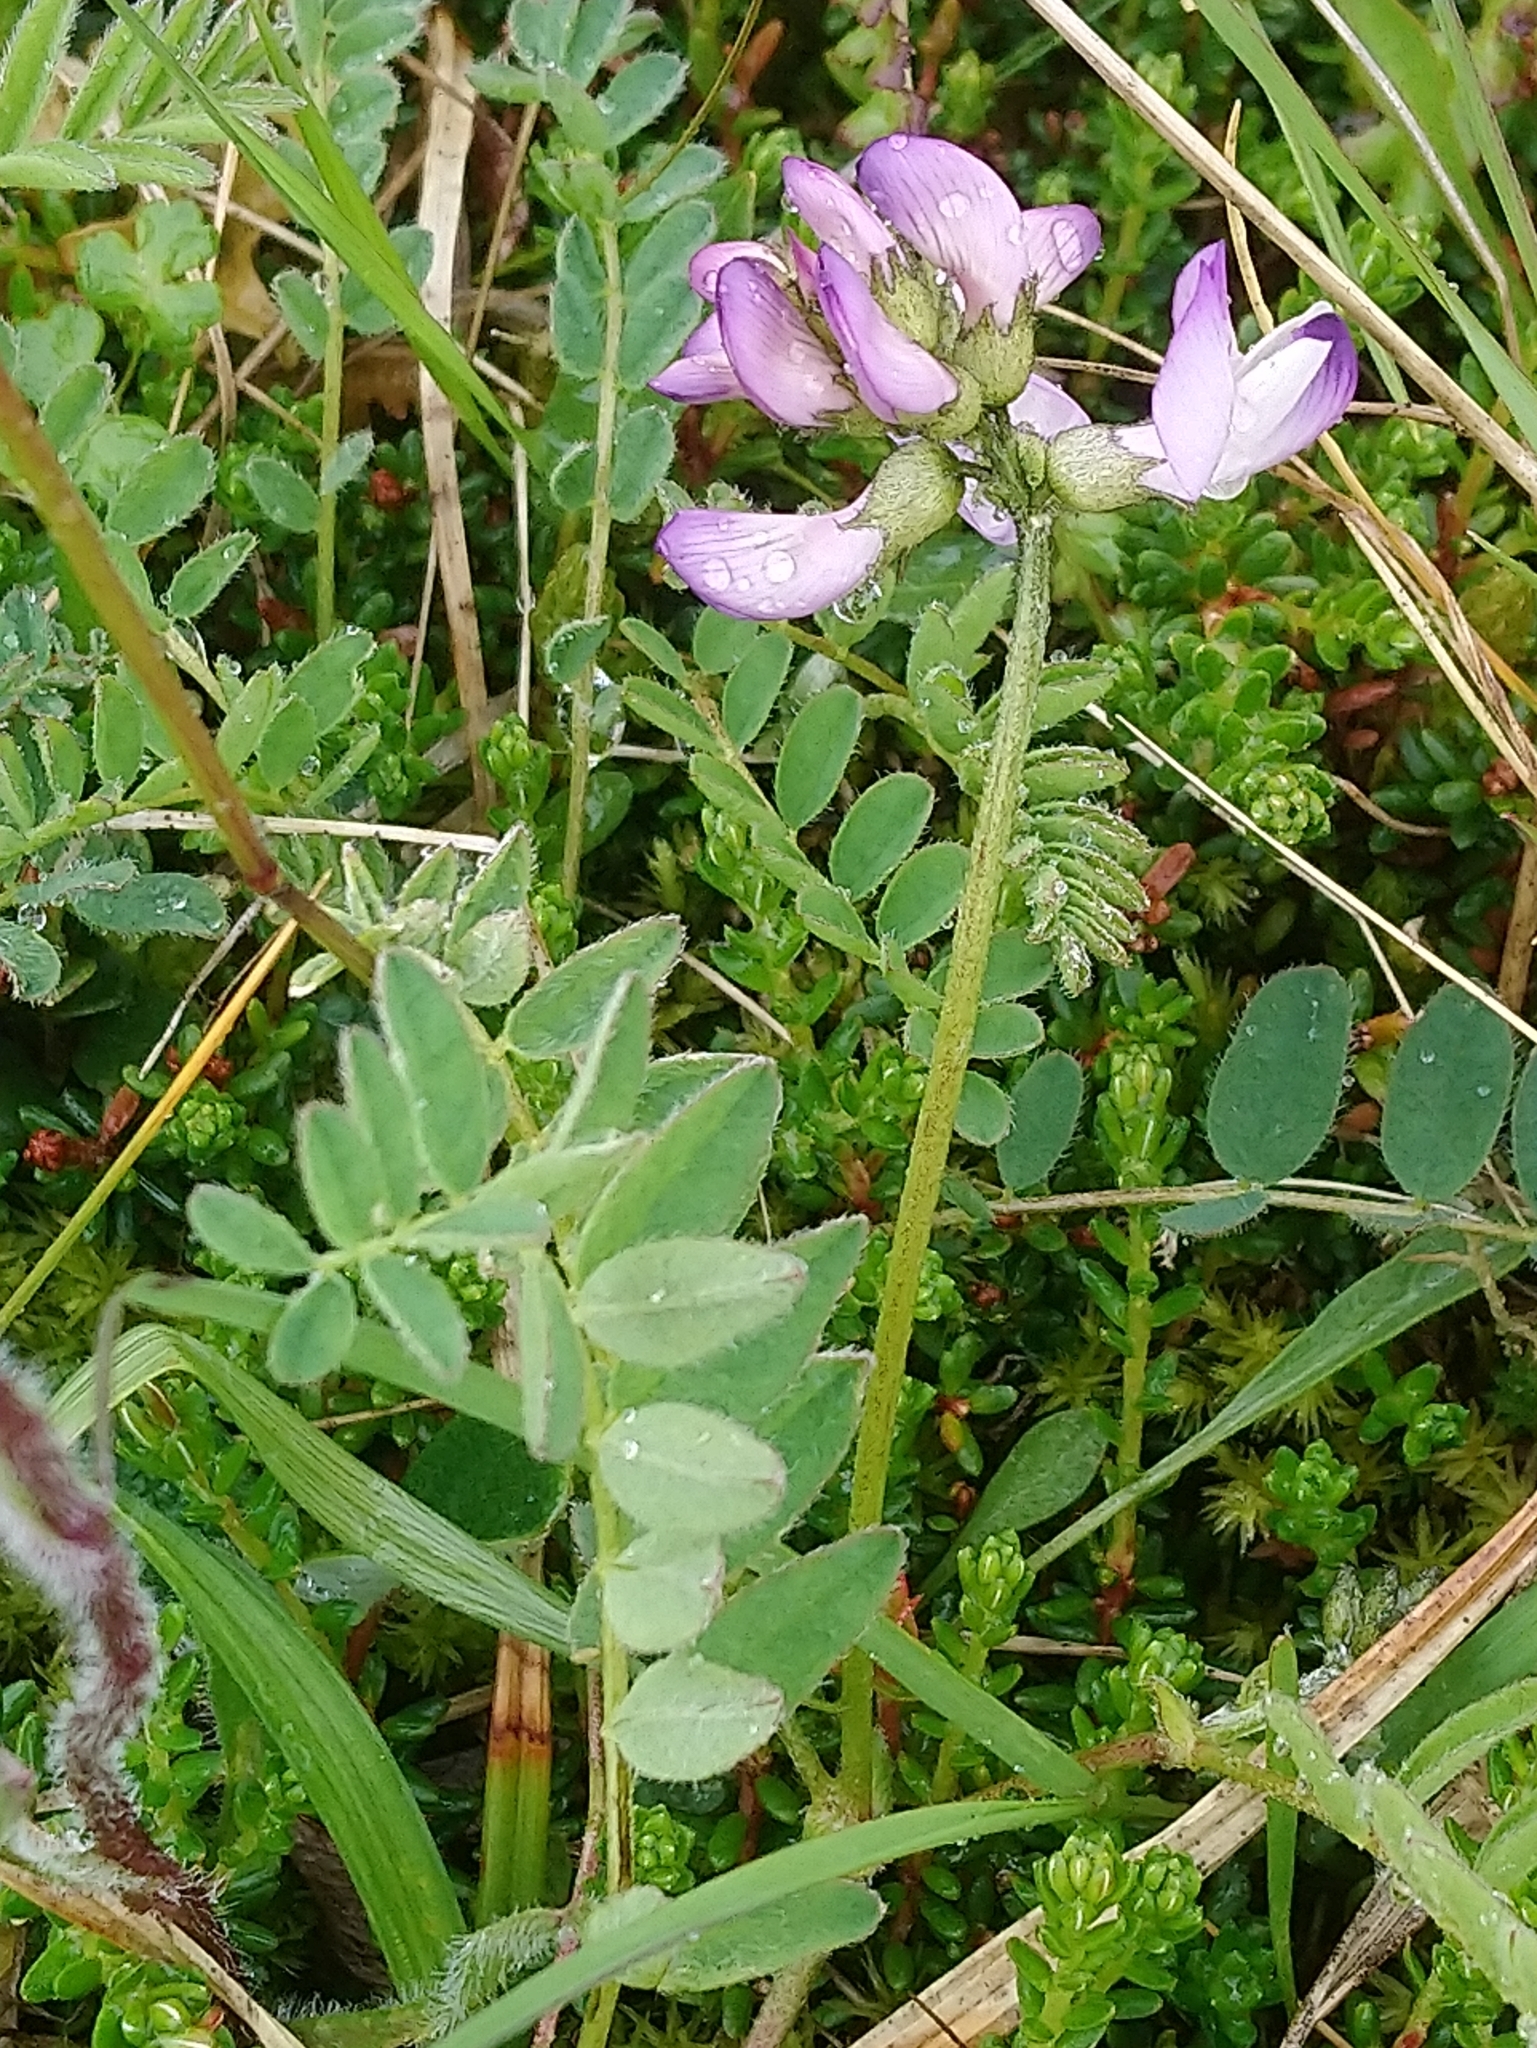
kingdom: Plantae
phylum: Tracheophyta
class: Magnoliopsida
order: Fabales
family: Fabaceae
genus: Astragalus
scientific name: Astragalus alpinus
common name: Alpine milk-vetch
